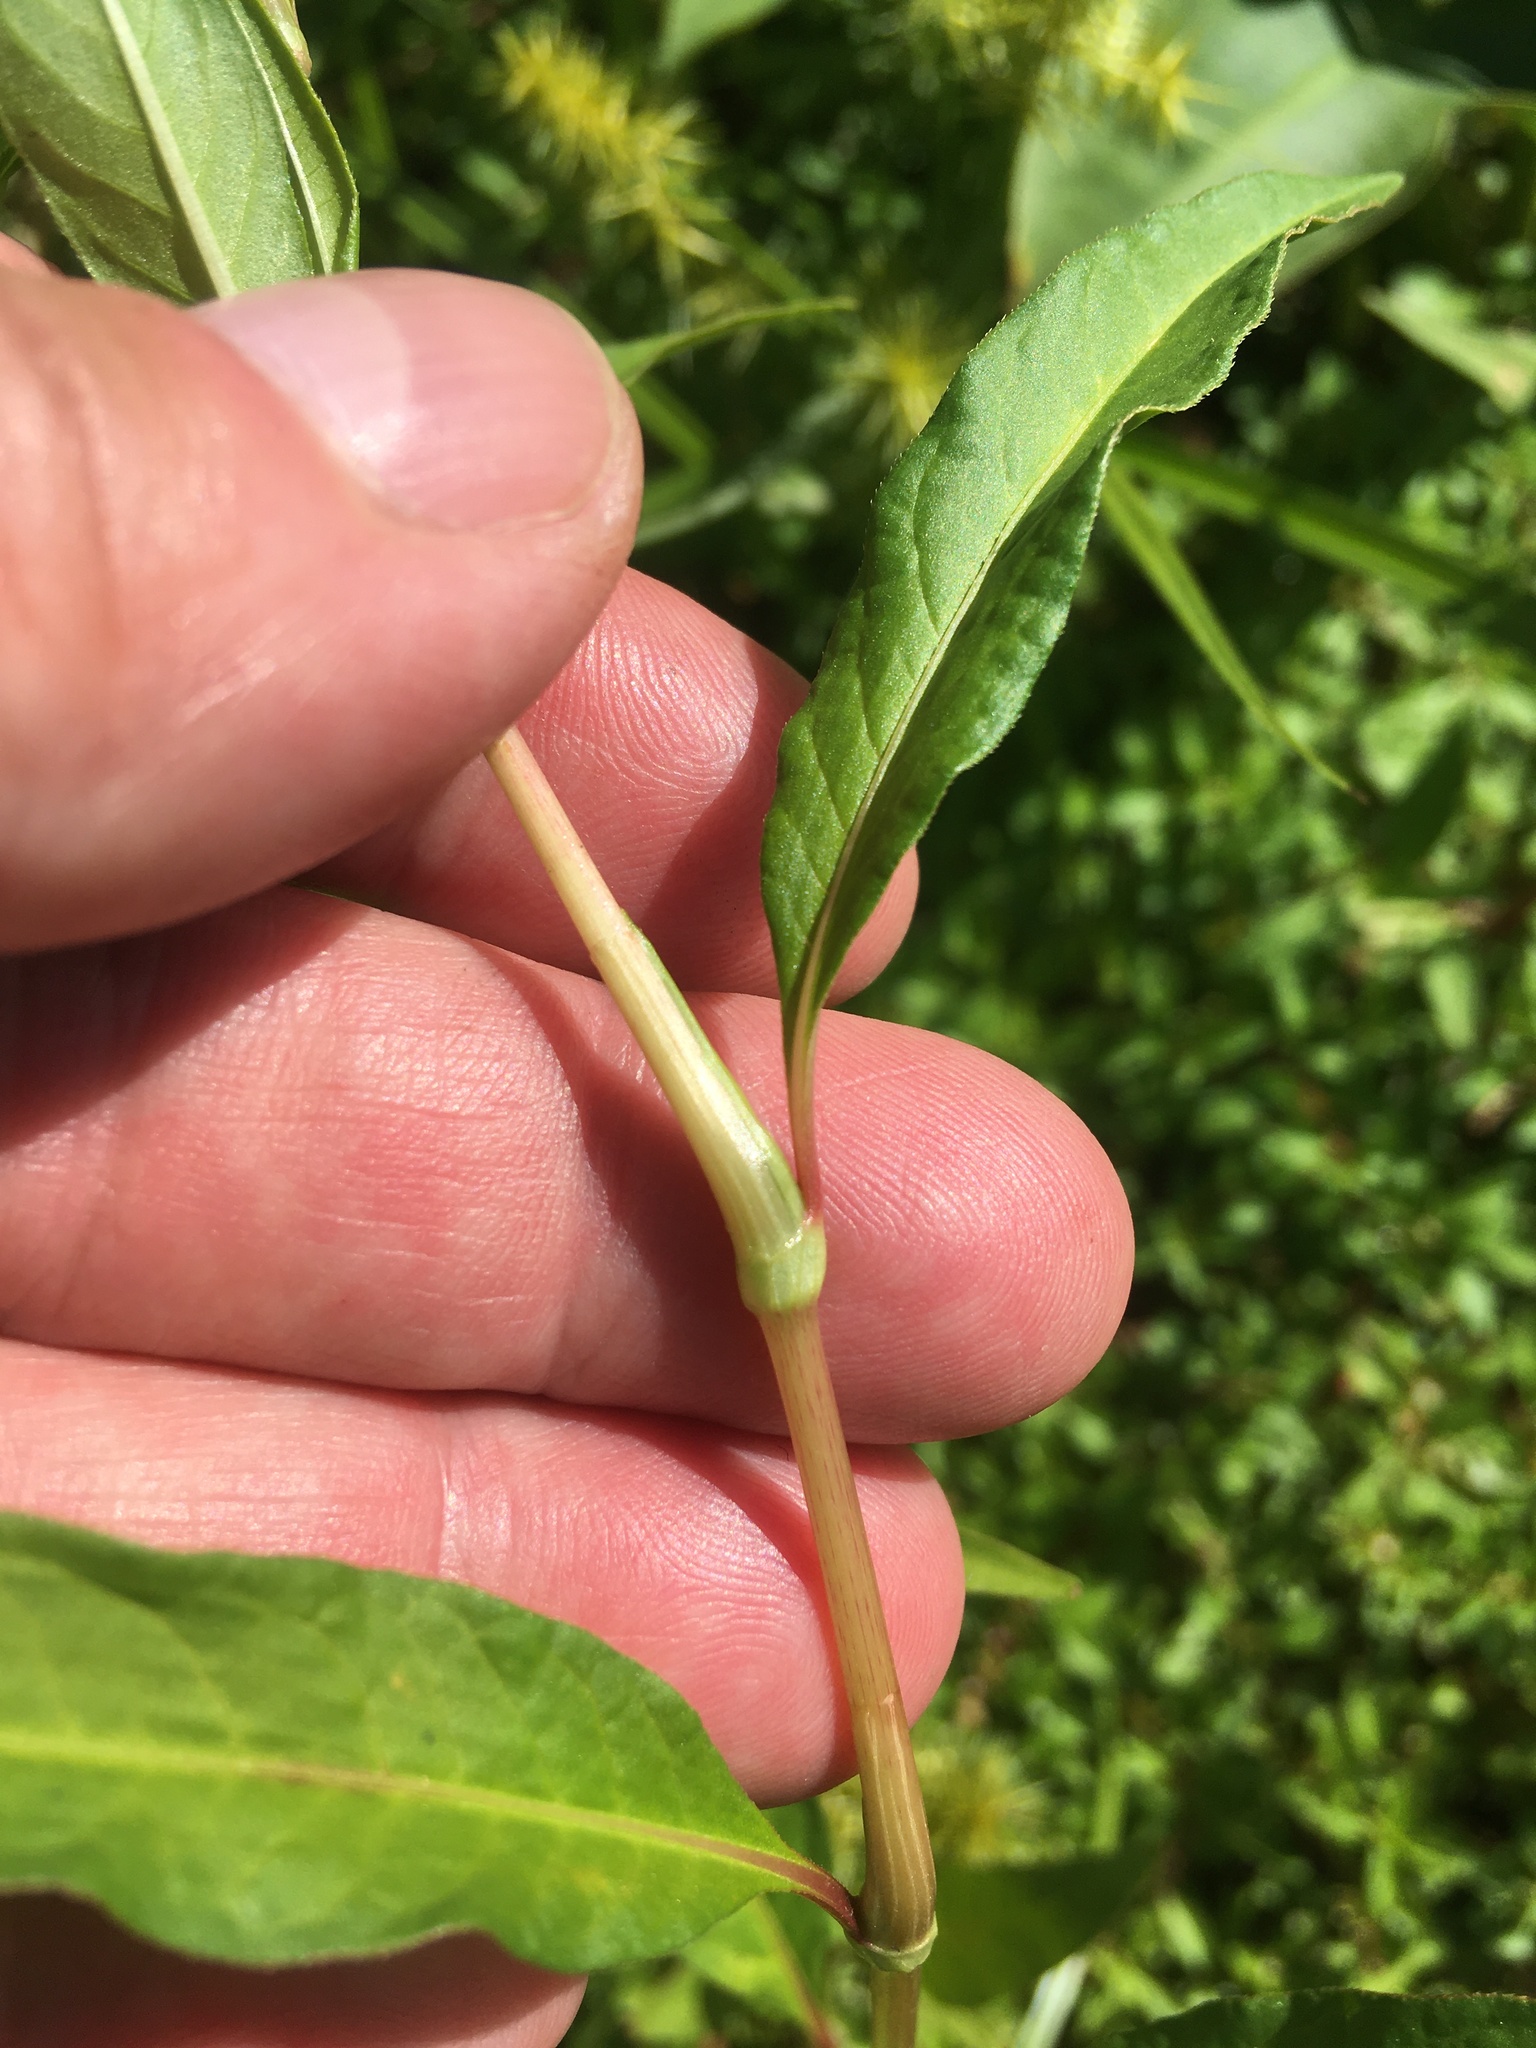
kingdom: Plantae
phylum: Tracheophyta
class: Magnoliopsida
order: Caryophyllales
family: Polygonaceae
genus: Persicaria
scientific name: Persicaria pensylvanica
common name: Pinkweed
